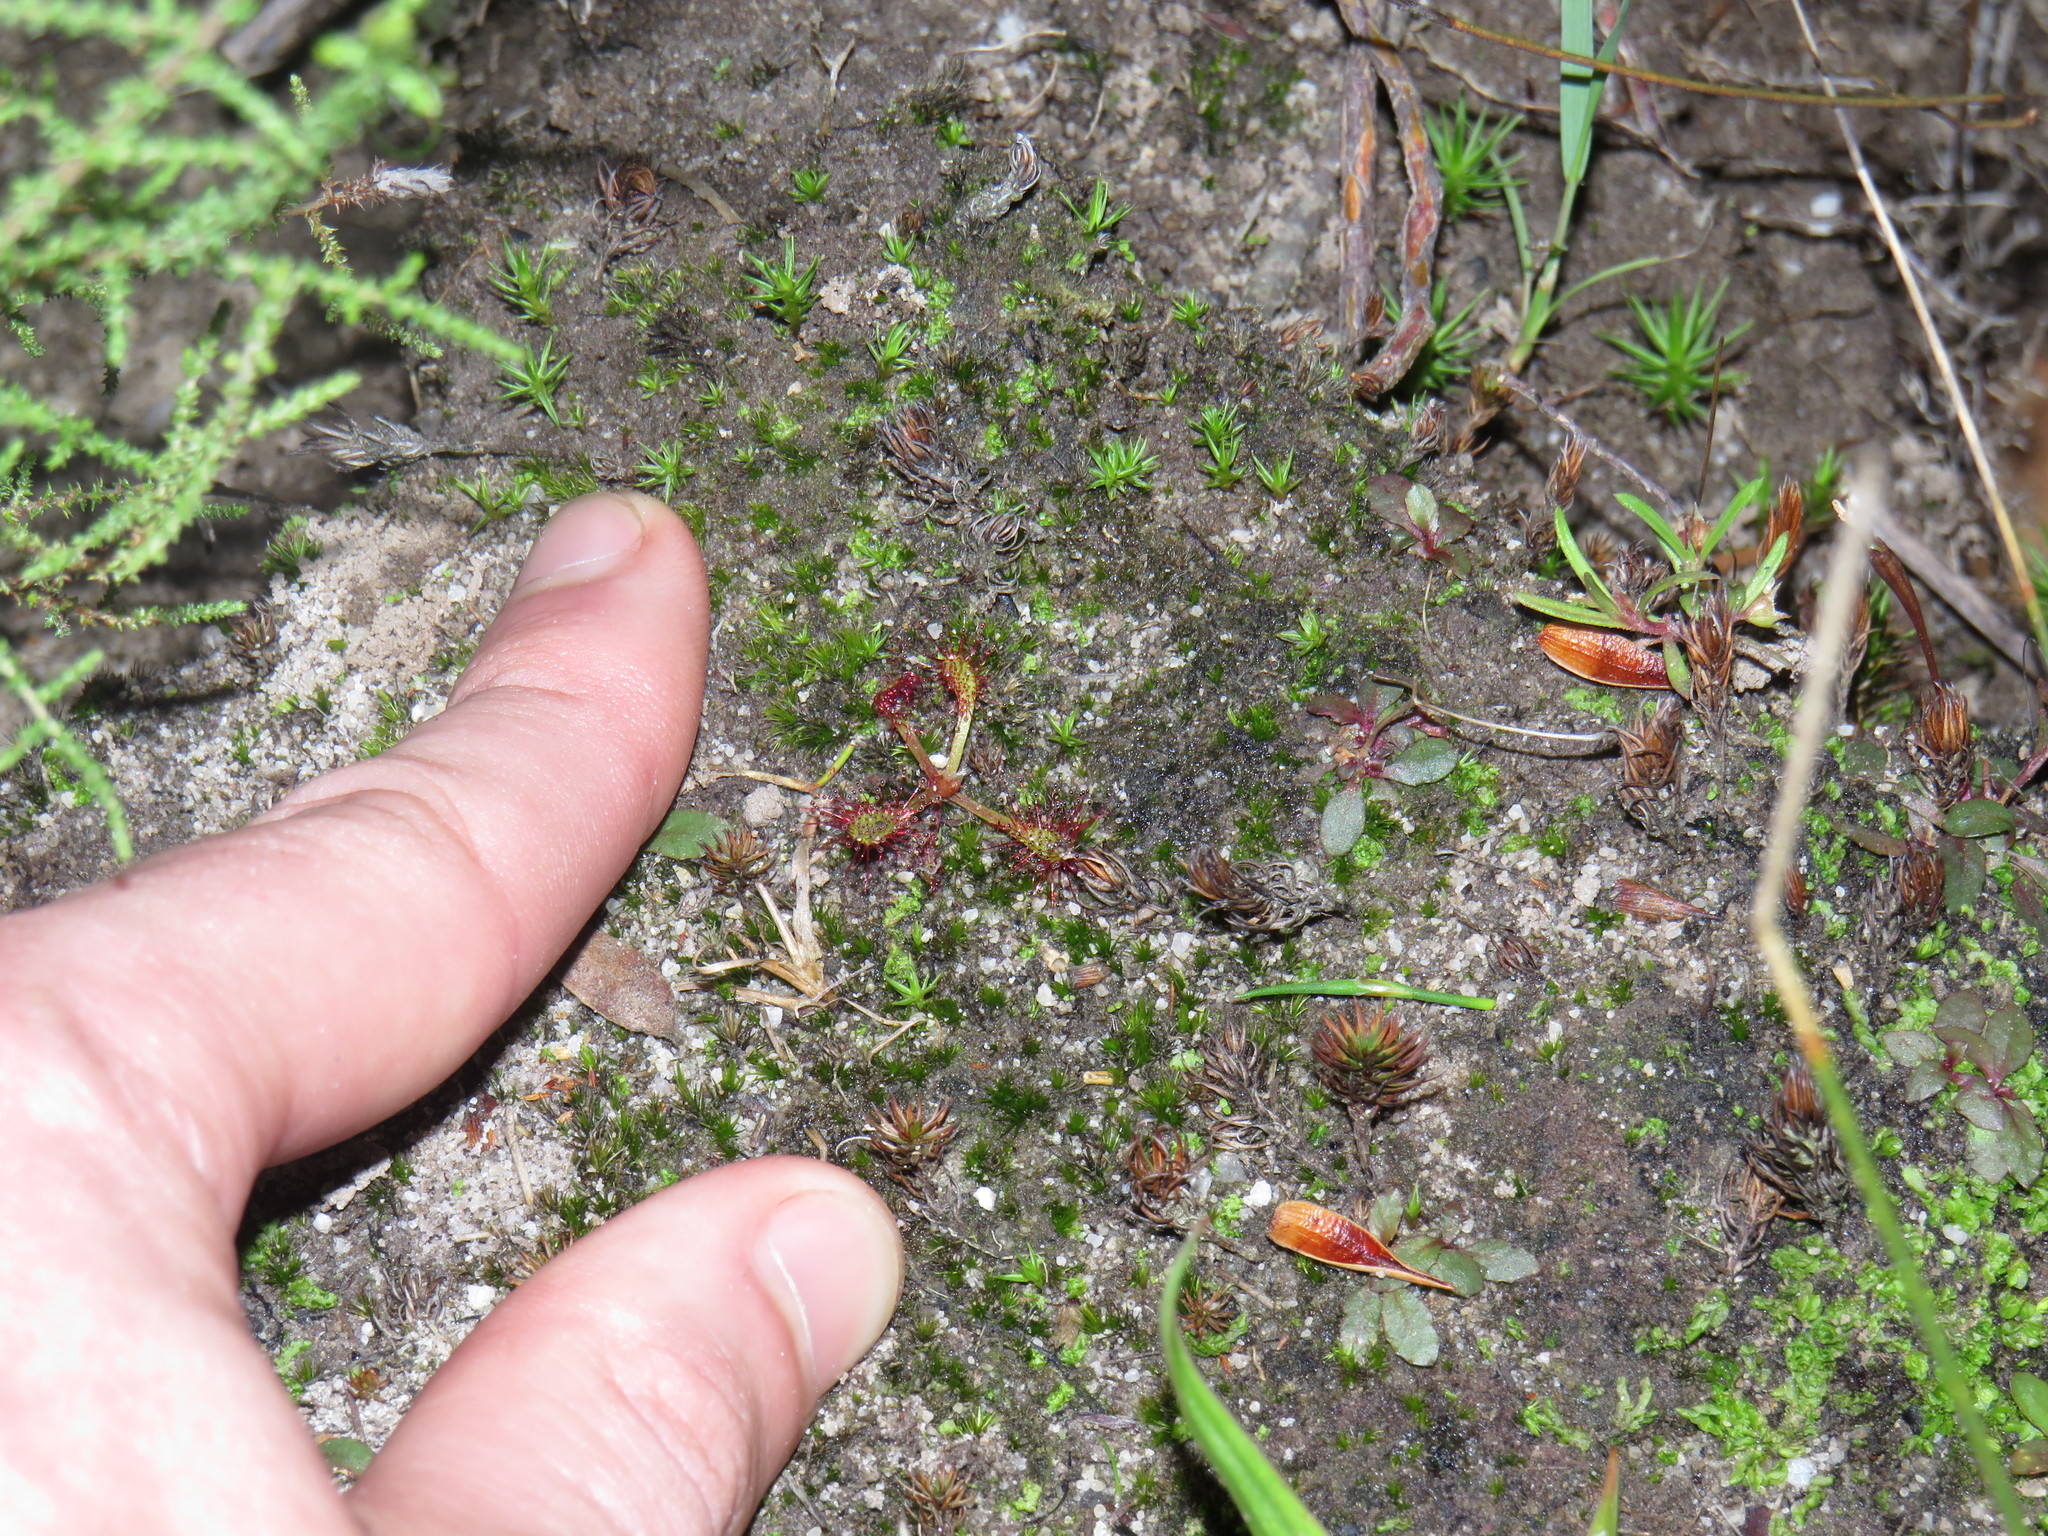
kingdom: Plantae
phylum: Tracheophyta
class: Magnoliopsida
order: Caryophyllales
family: Droseraceae
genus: Drosera
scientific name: Drosera capensis
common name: Cape sundew
